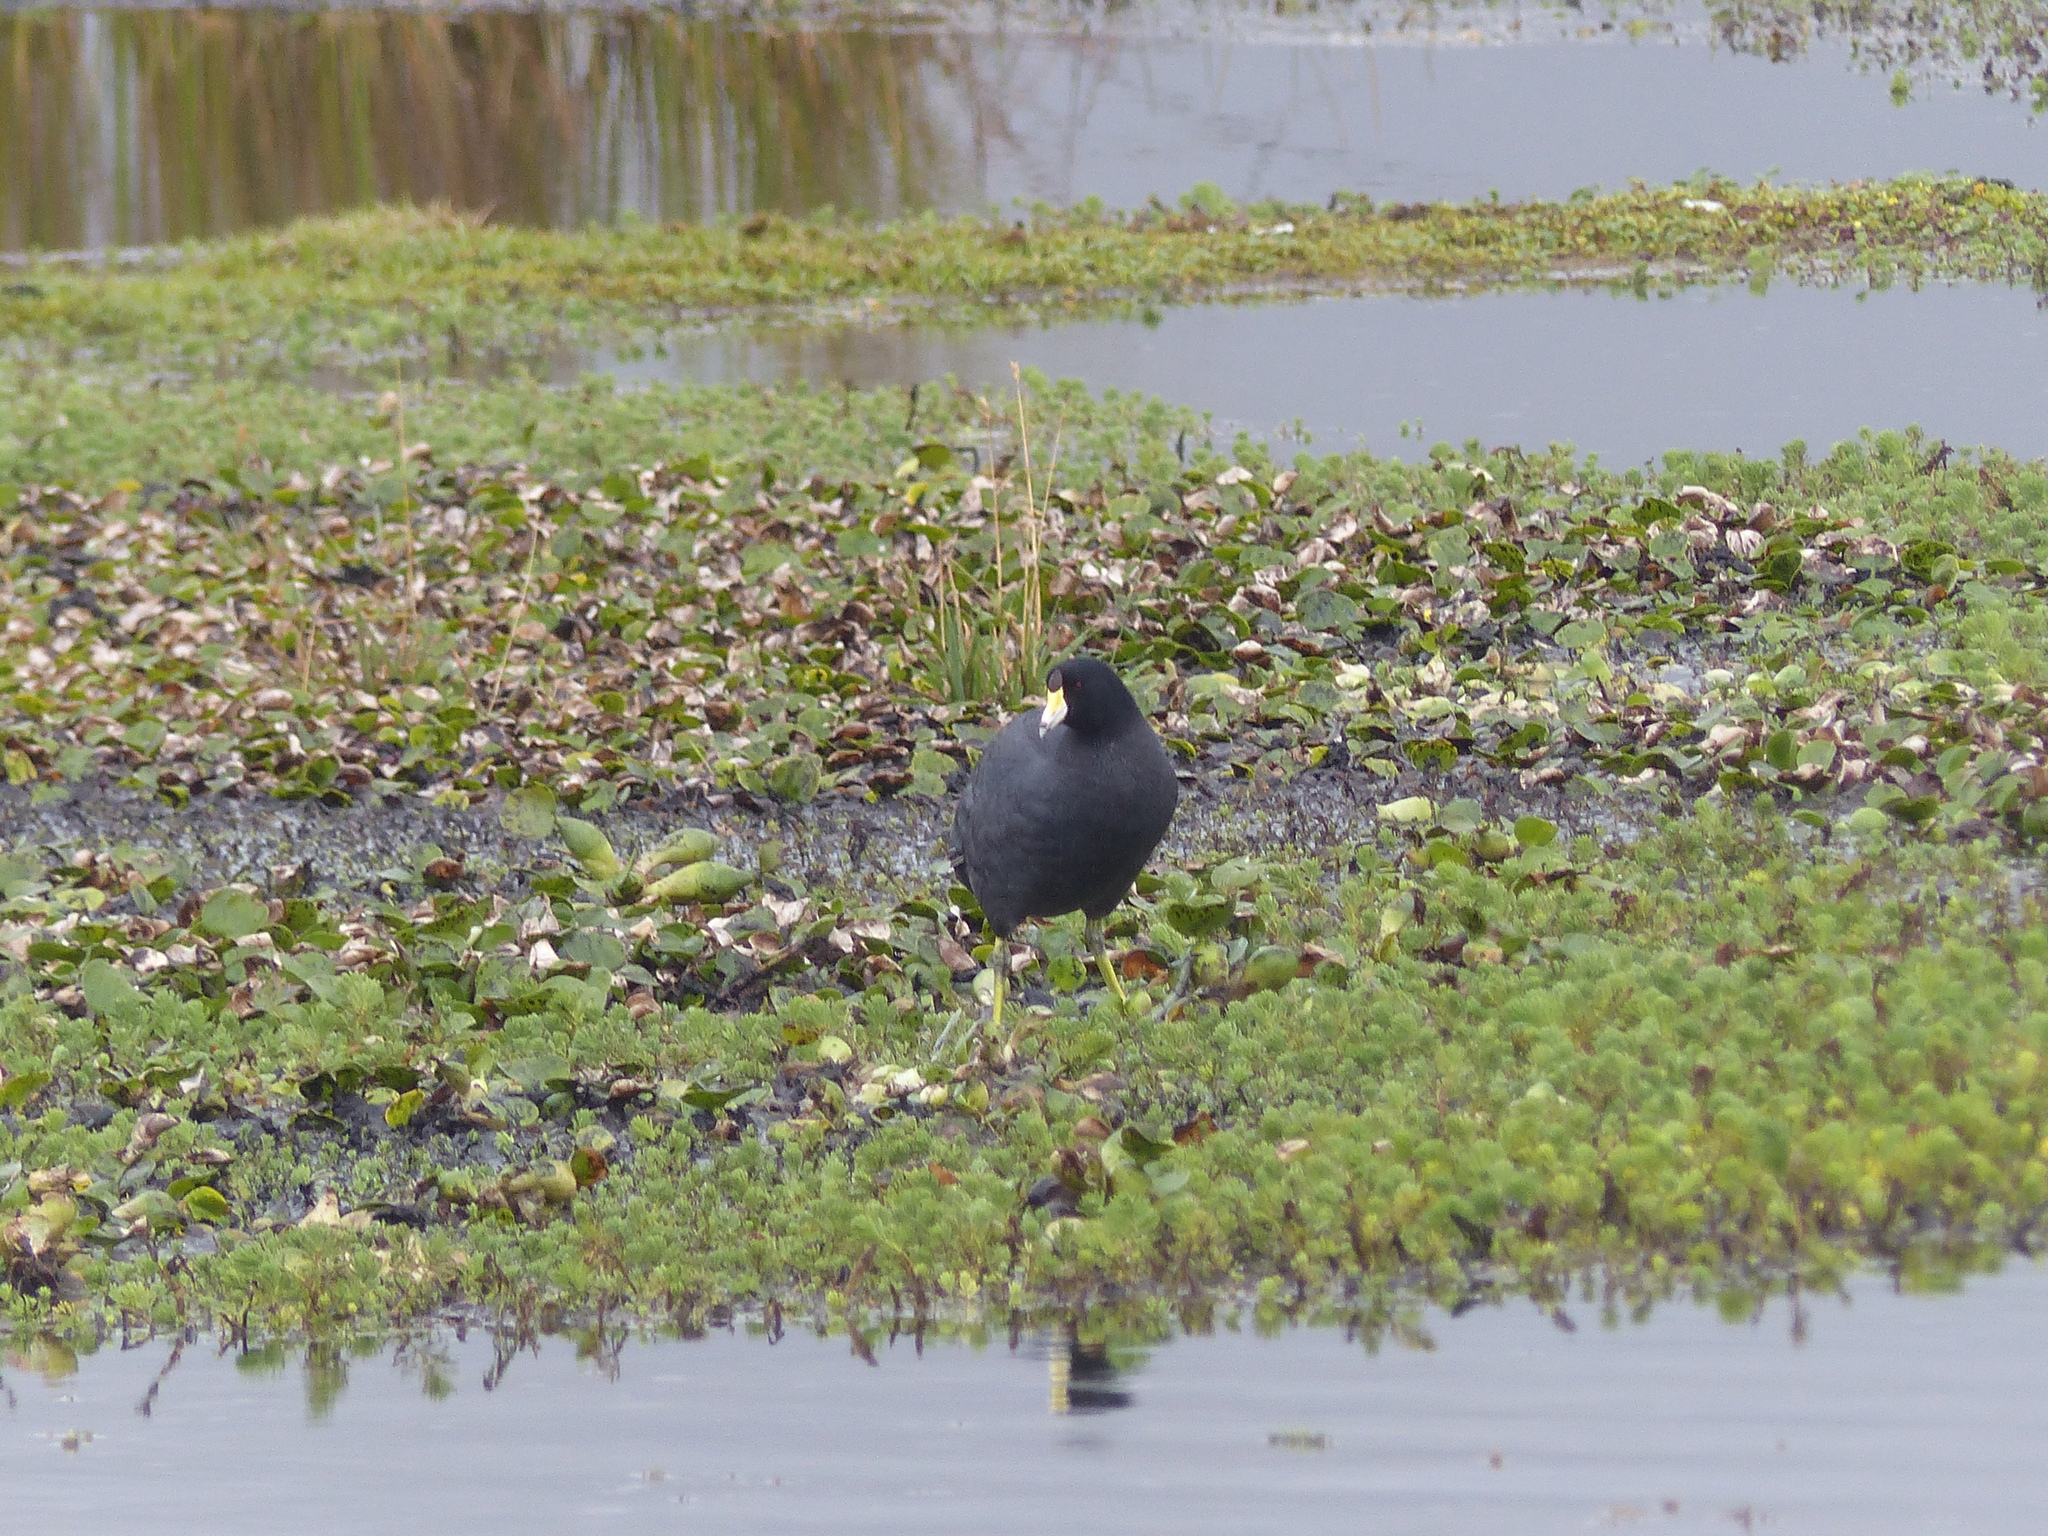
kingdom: Animalia
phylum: Chordata
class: Aves
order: Gruiformes
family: Rallidae
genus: Fulica
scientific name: Fulica americana
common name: American coot
